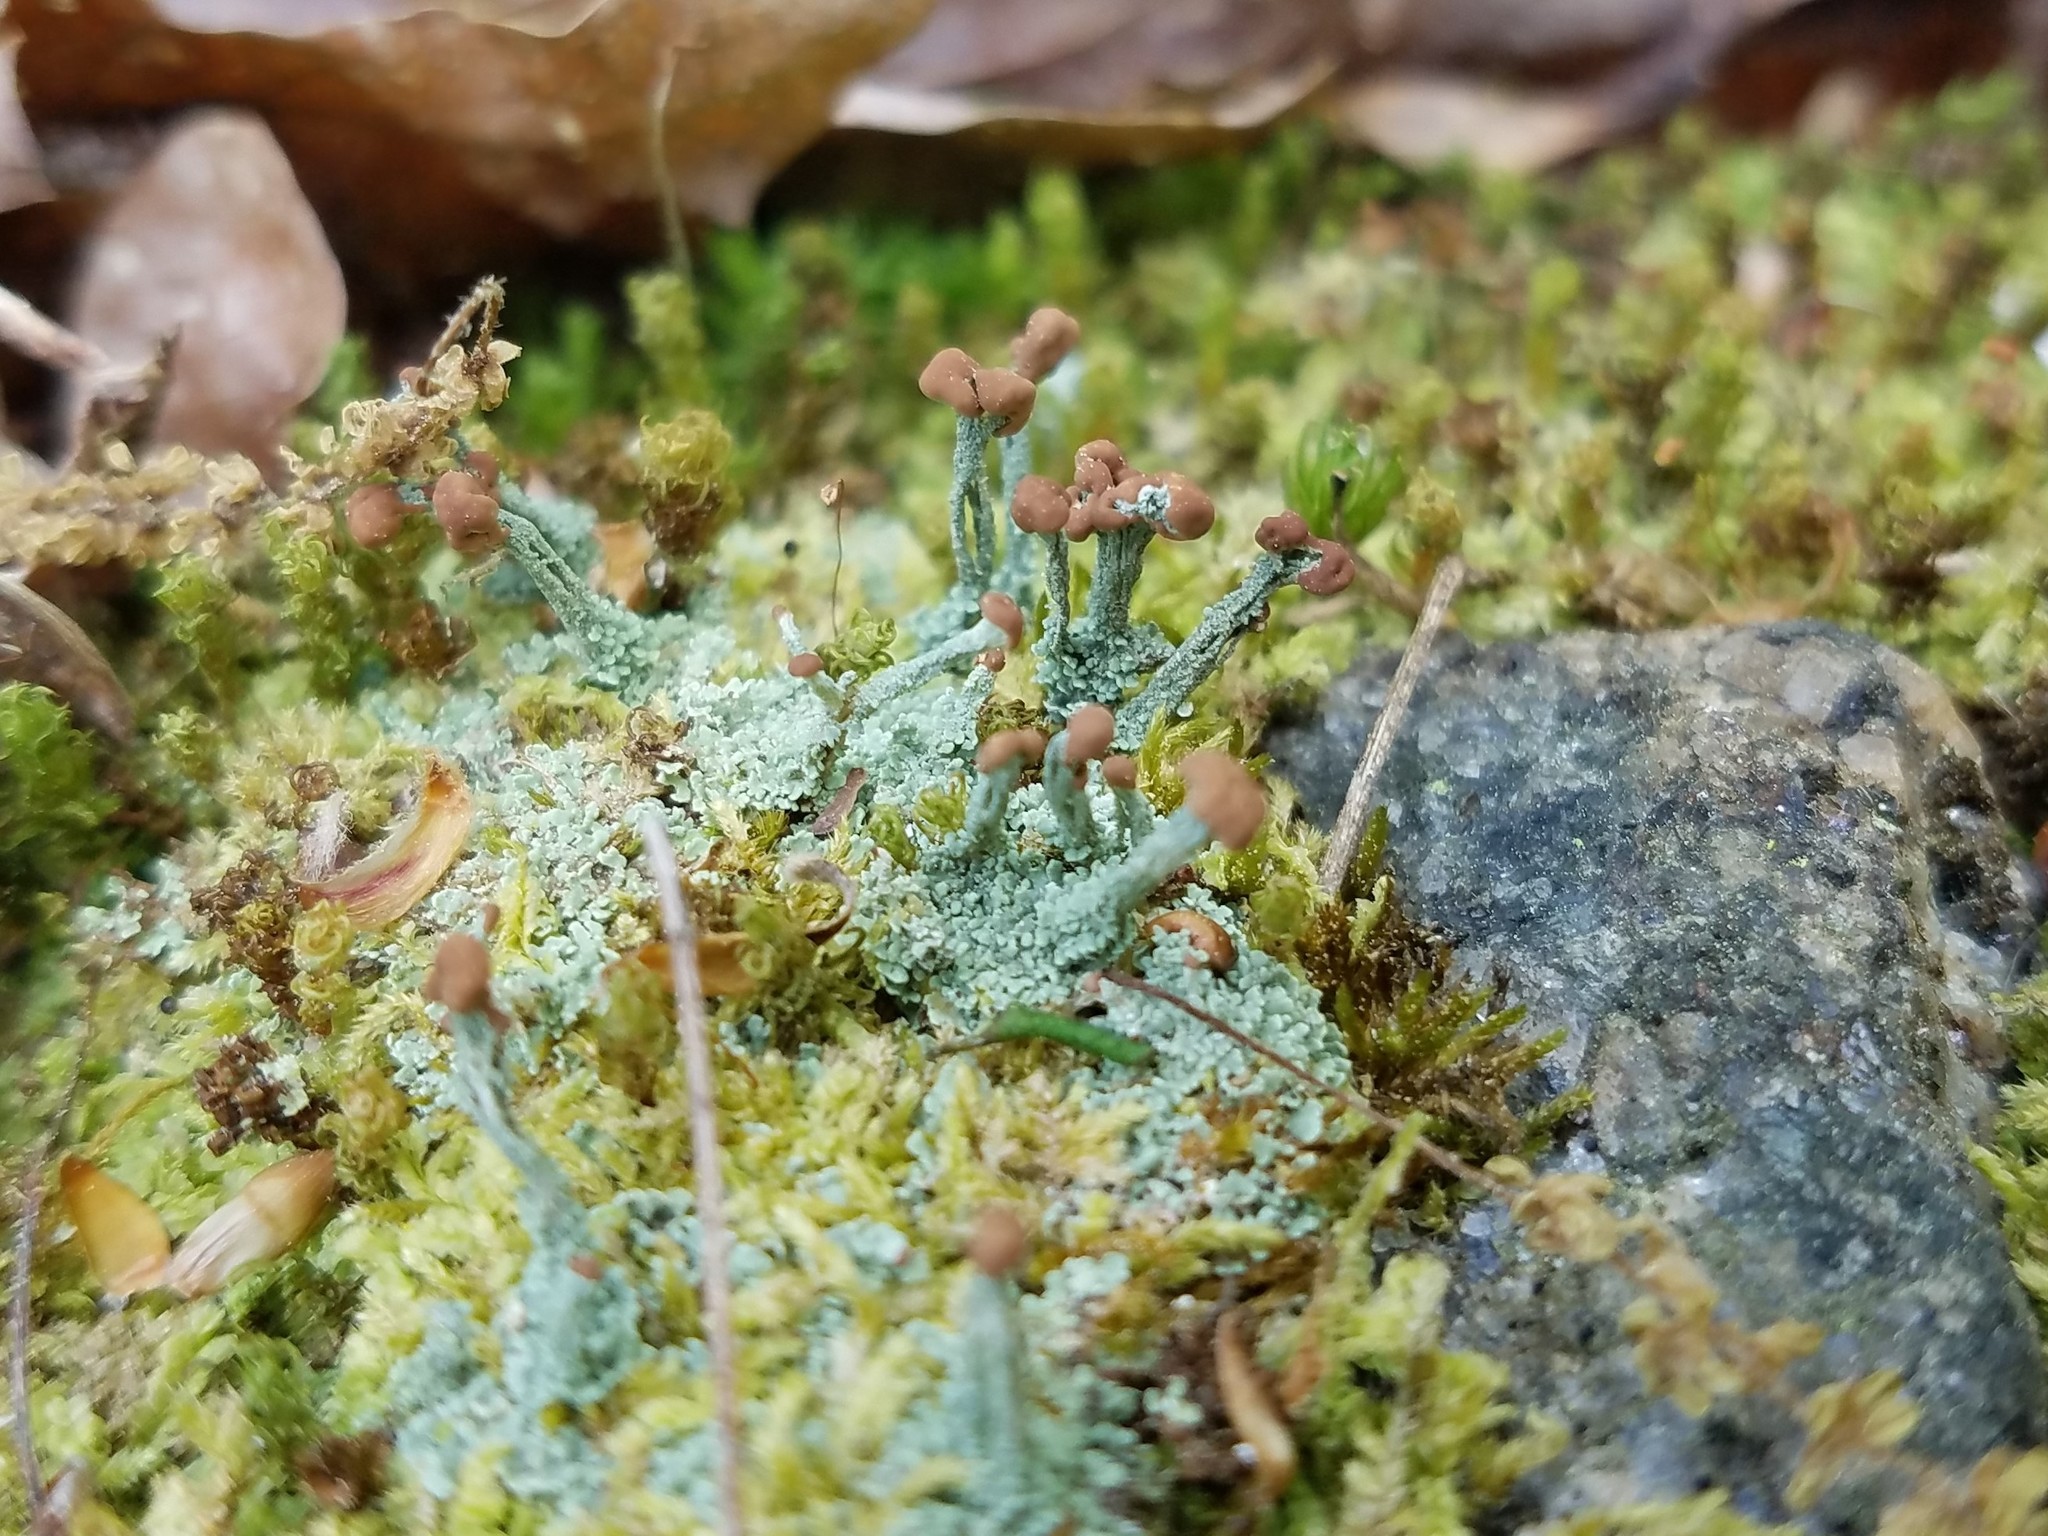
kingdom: Fungi
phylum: Ascomycota
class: Lecanoromycetes
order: Lecanorales
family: Cladoniaceae
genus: Cladonia
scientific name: Cladonia peziziformis
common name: Cup lichen
